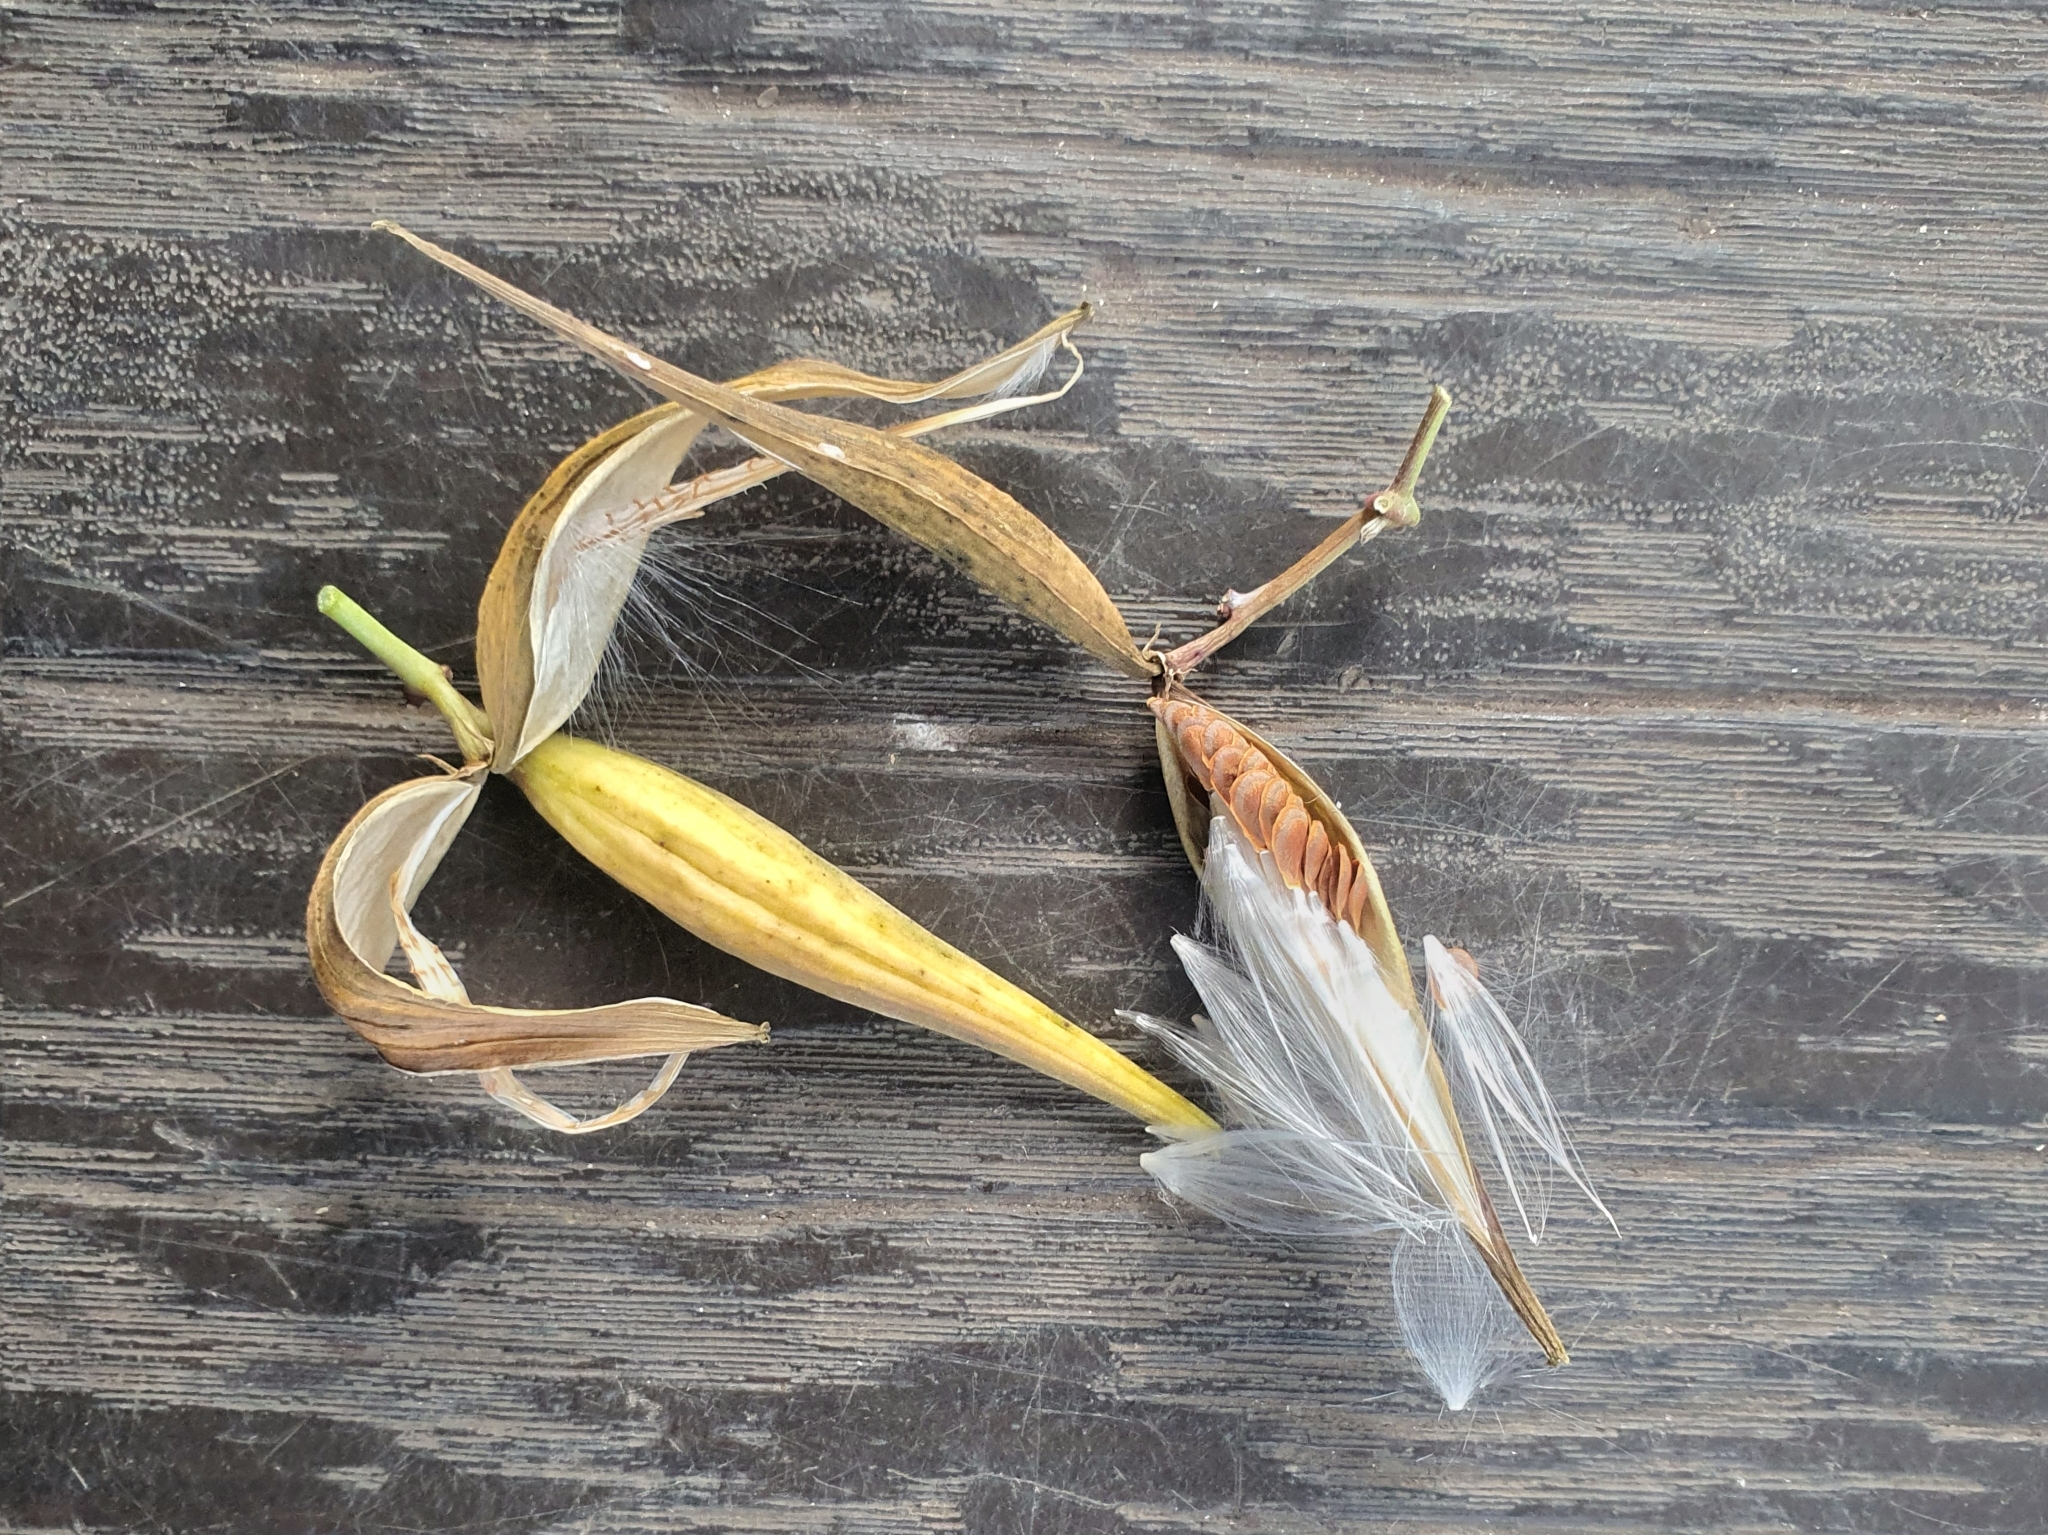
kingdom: Plantae
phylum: Tracheophyta
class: Magnoliopsida
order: Gentianales
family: Apocynaceae
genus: Cynanchum
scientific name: Cynanchum tunicatum
